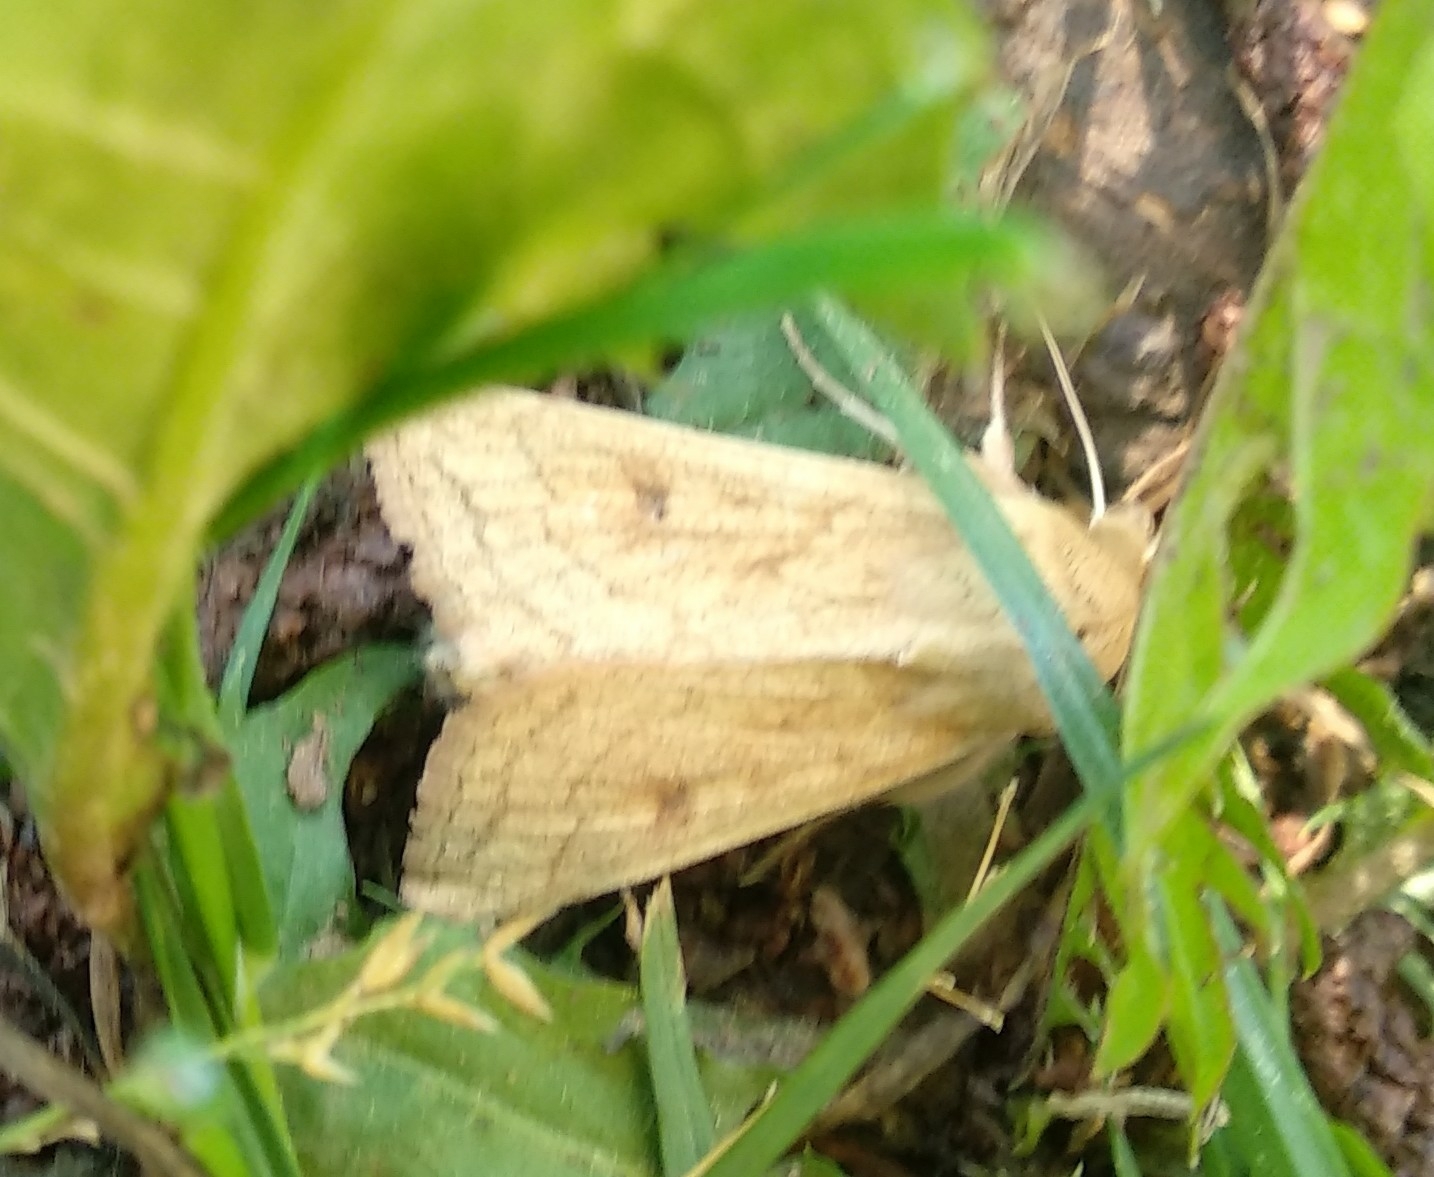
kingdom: Animalia
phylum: Arthropoda
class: Insecta
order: Lepidoptera
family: Noctuidae
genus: Mythimna
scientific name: Mythimna vitellina
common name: Delicate
